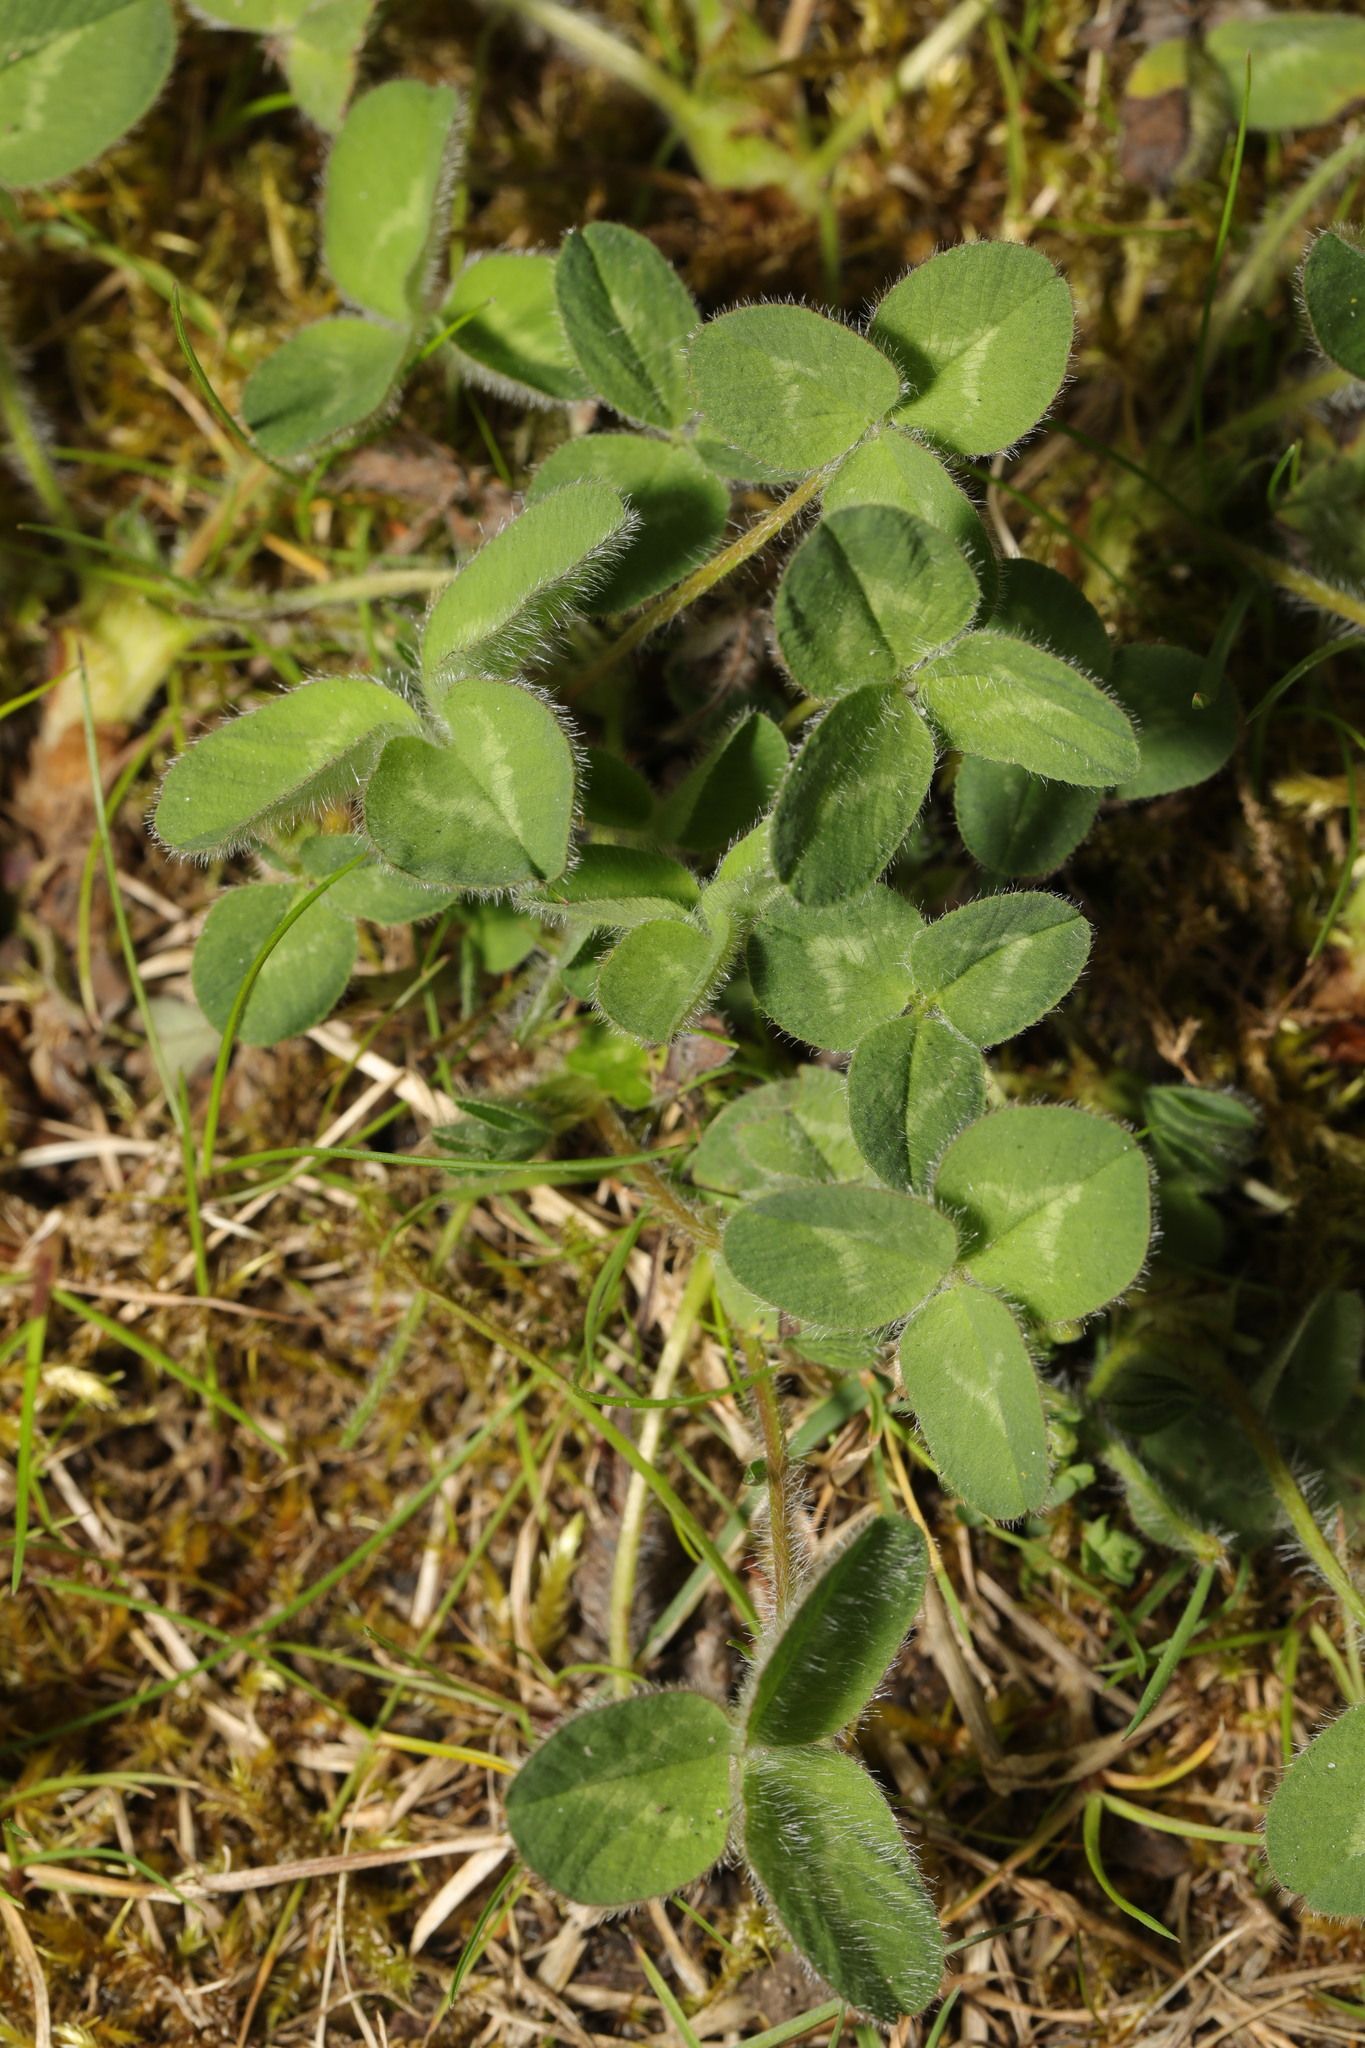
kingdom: Plantae
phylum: Tracheophyta
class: Magnoliopsida
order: Fabales
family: Fabaceae
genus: Trifolium
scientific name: Trifolium pratense
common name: Red clover
